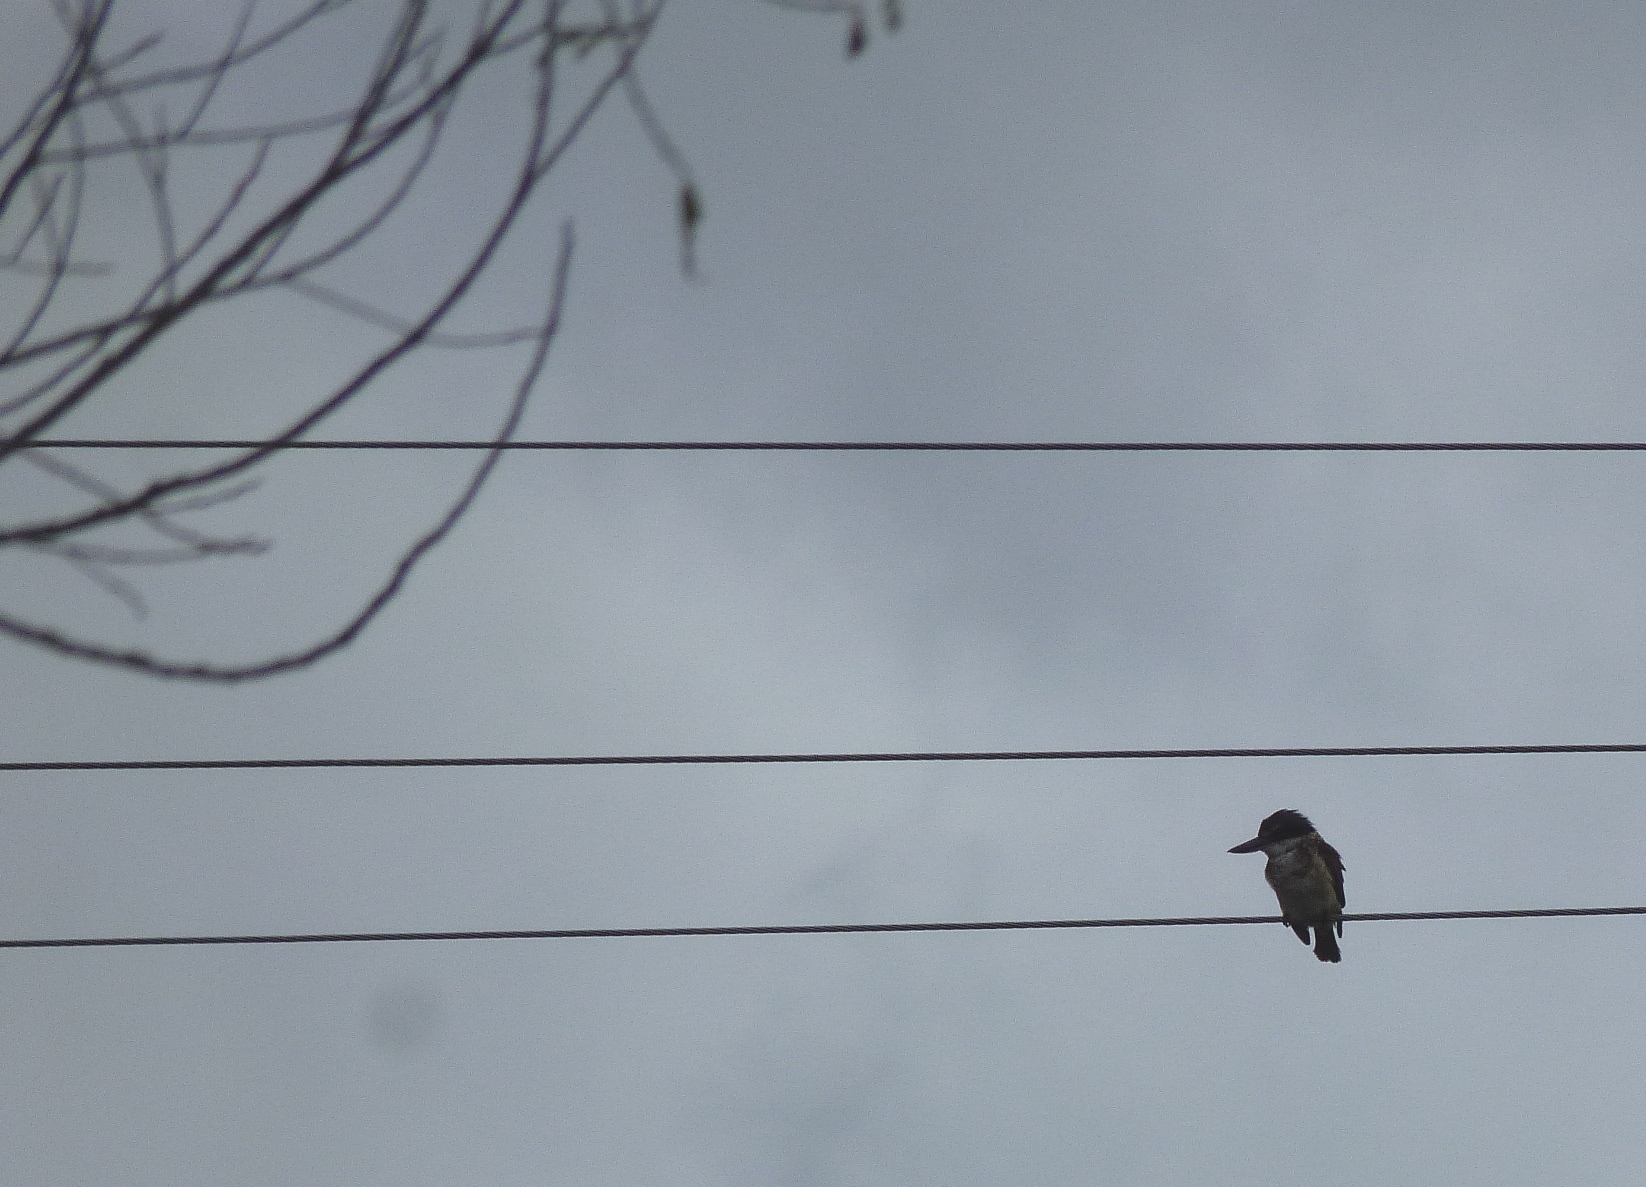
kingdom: Animalia
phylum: Chordata
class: Aves
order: Coraciiformes
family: Alcedinidae
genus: Todiramphus
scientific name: Todiramphus sanctus
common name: Sacred kingfisher
